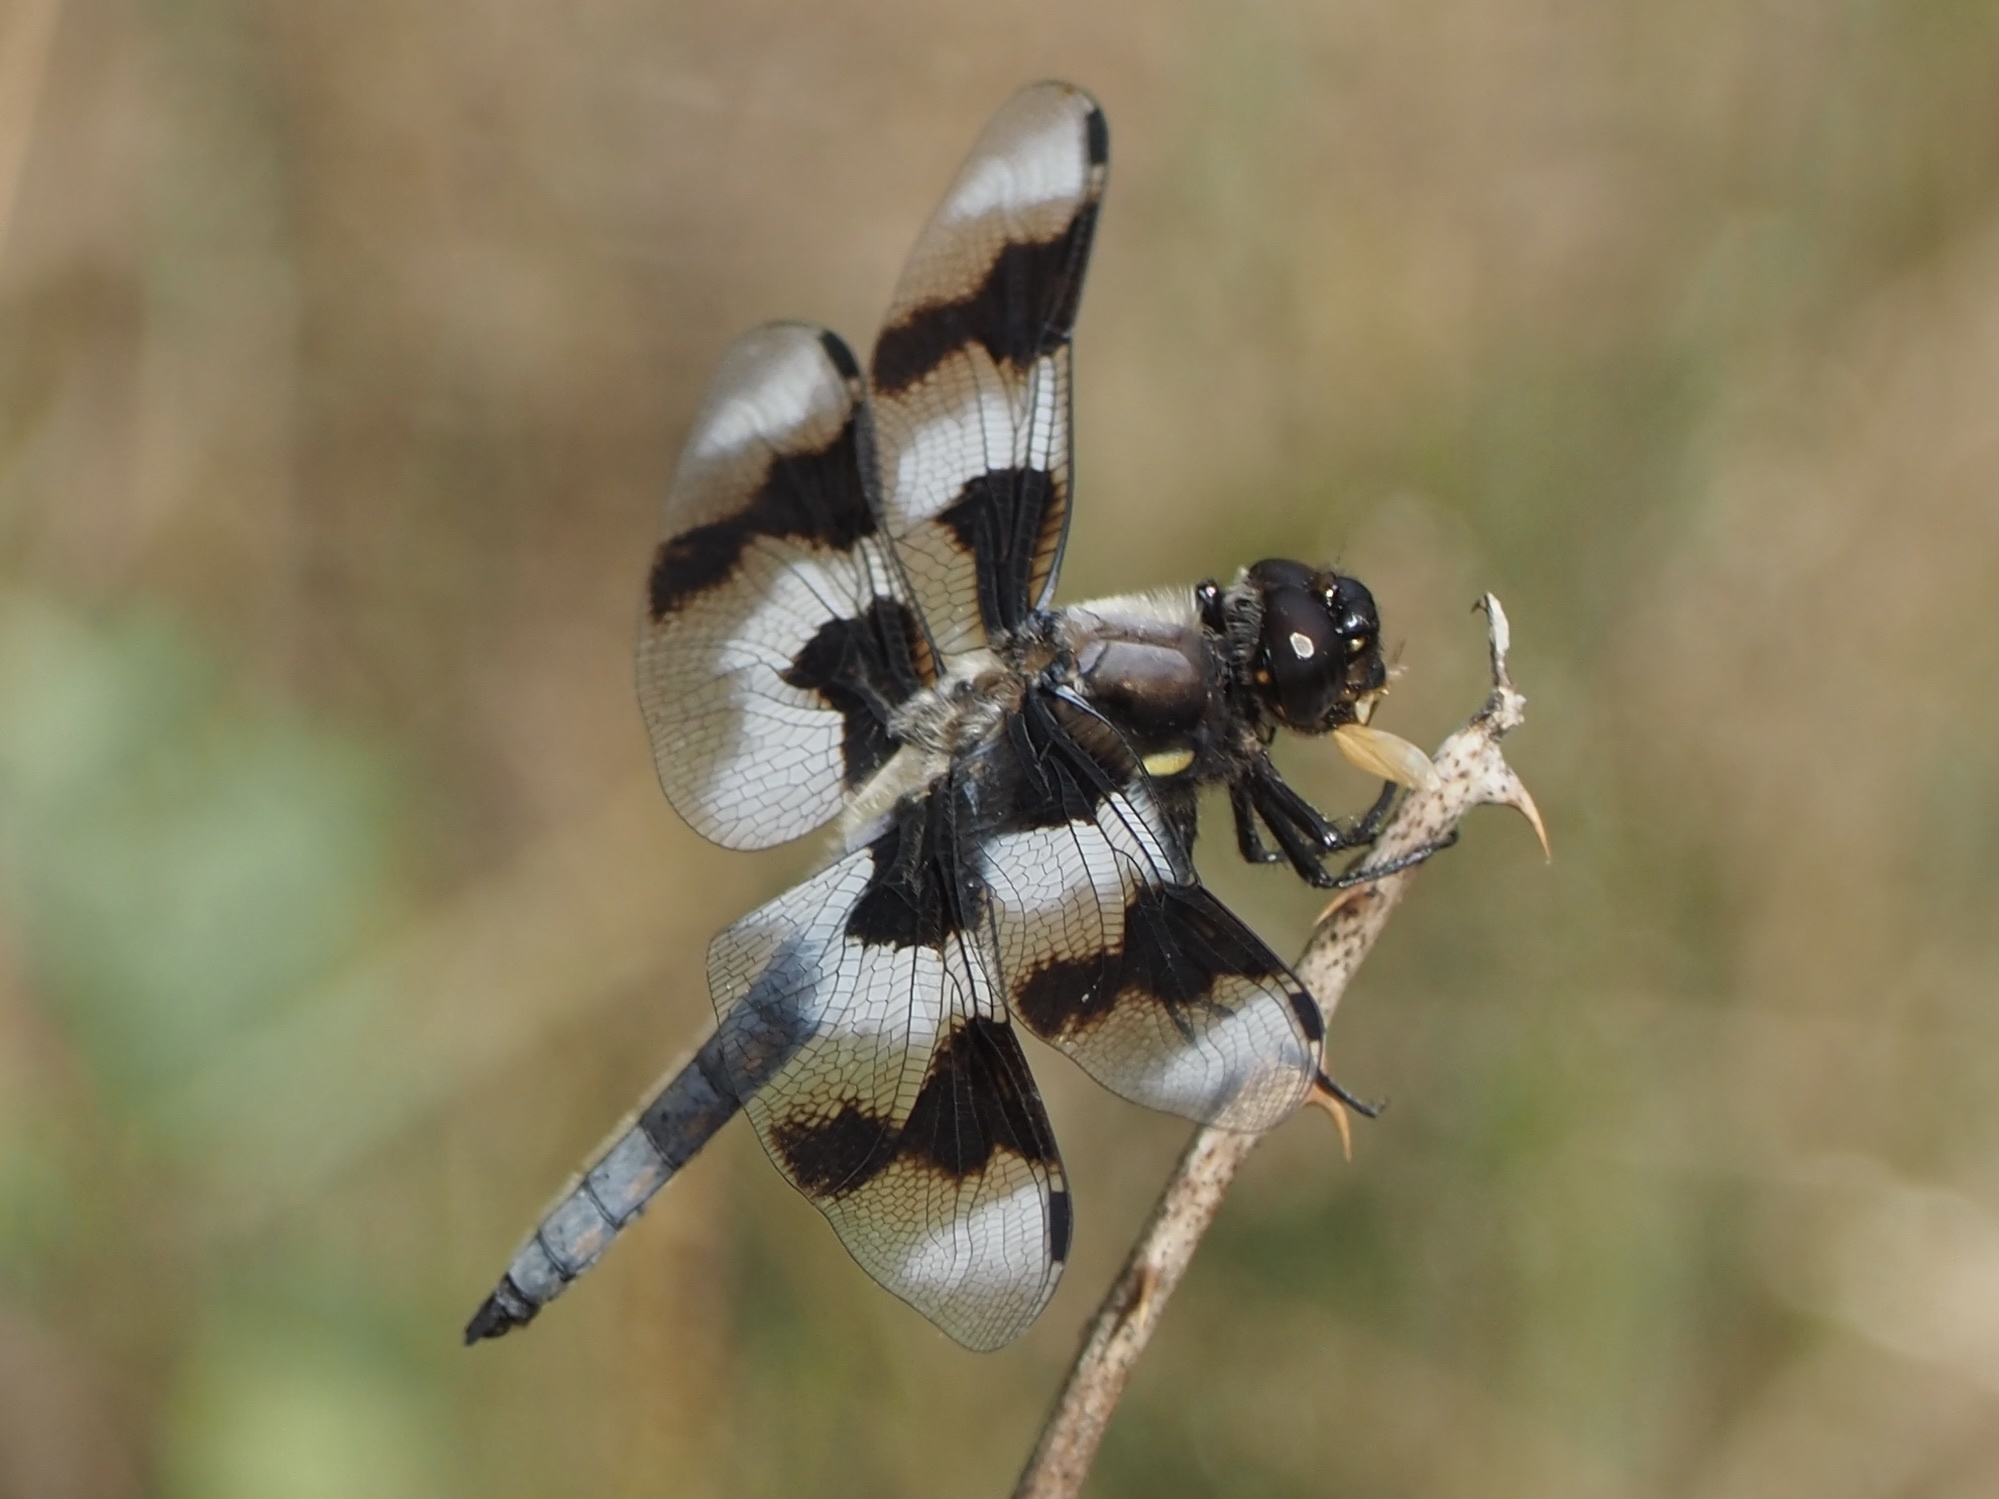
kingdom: Animalia
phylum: Arthropoda
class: Insecta
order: Odonata
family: Libellulidae
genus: Libellula
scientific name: Libellula forensis
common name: Eight-spotted skimmer
